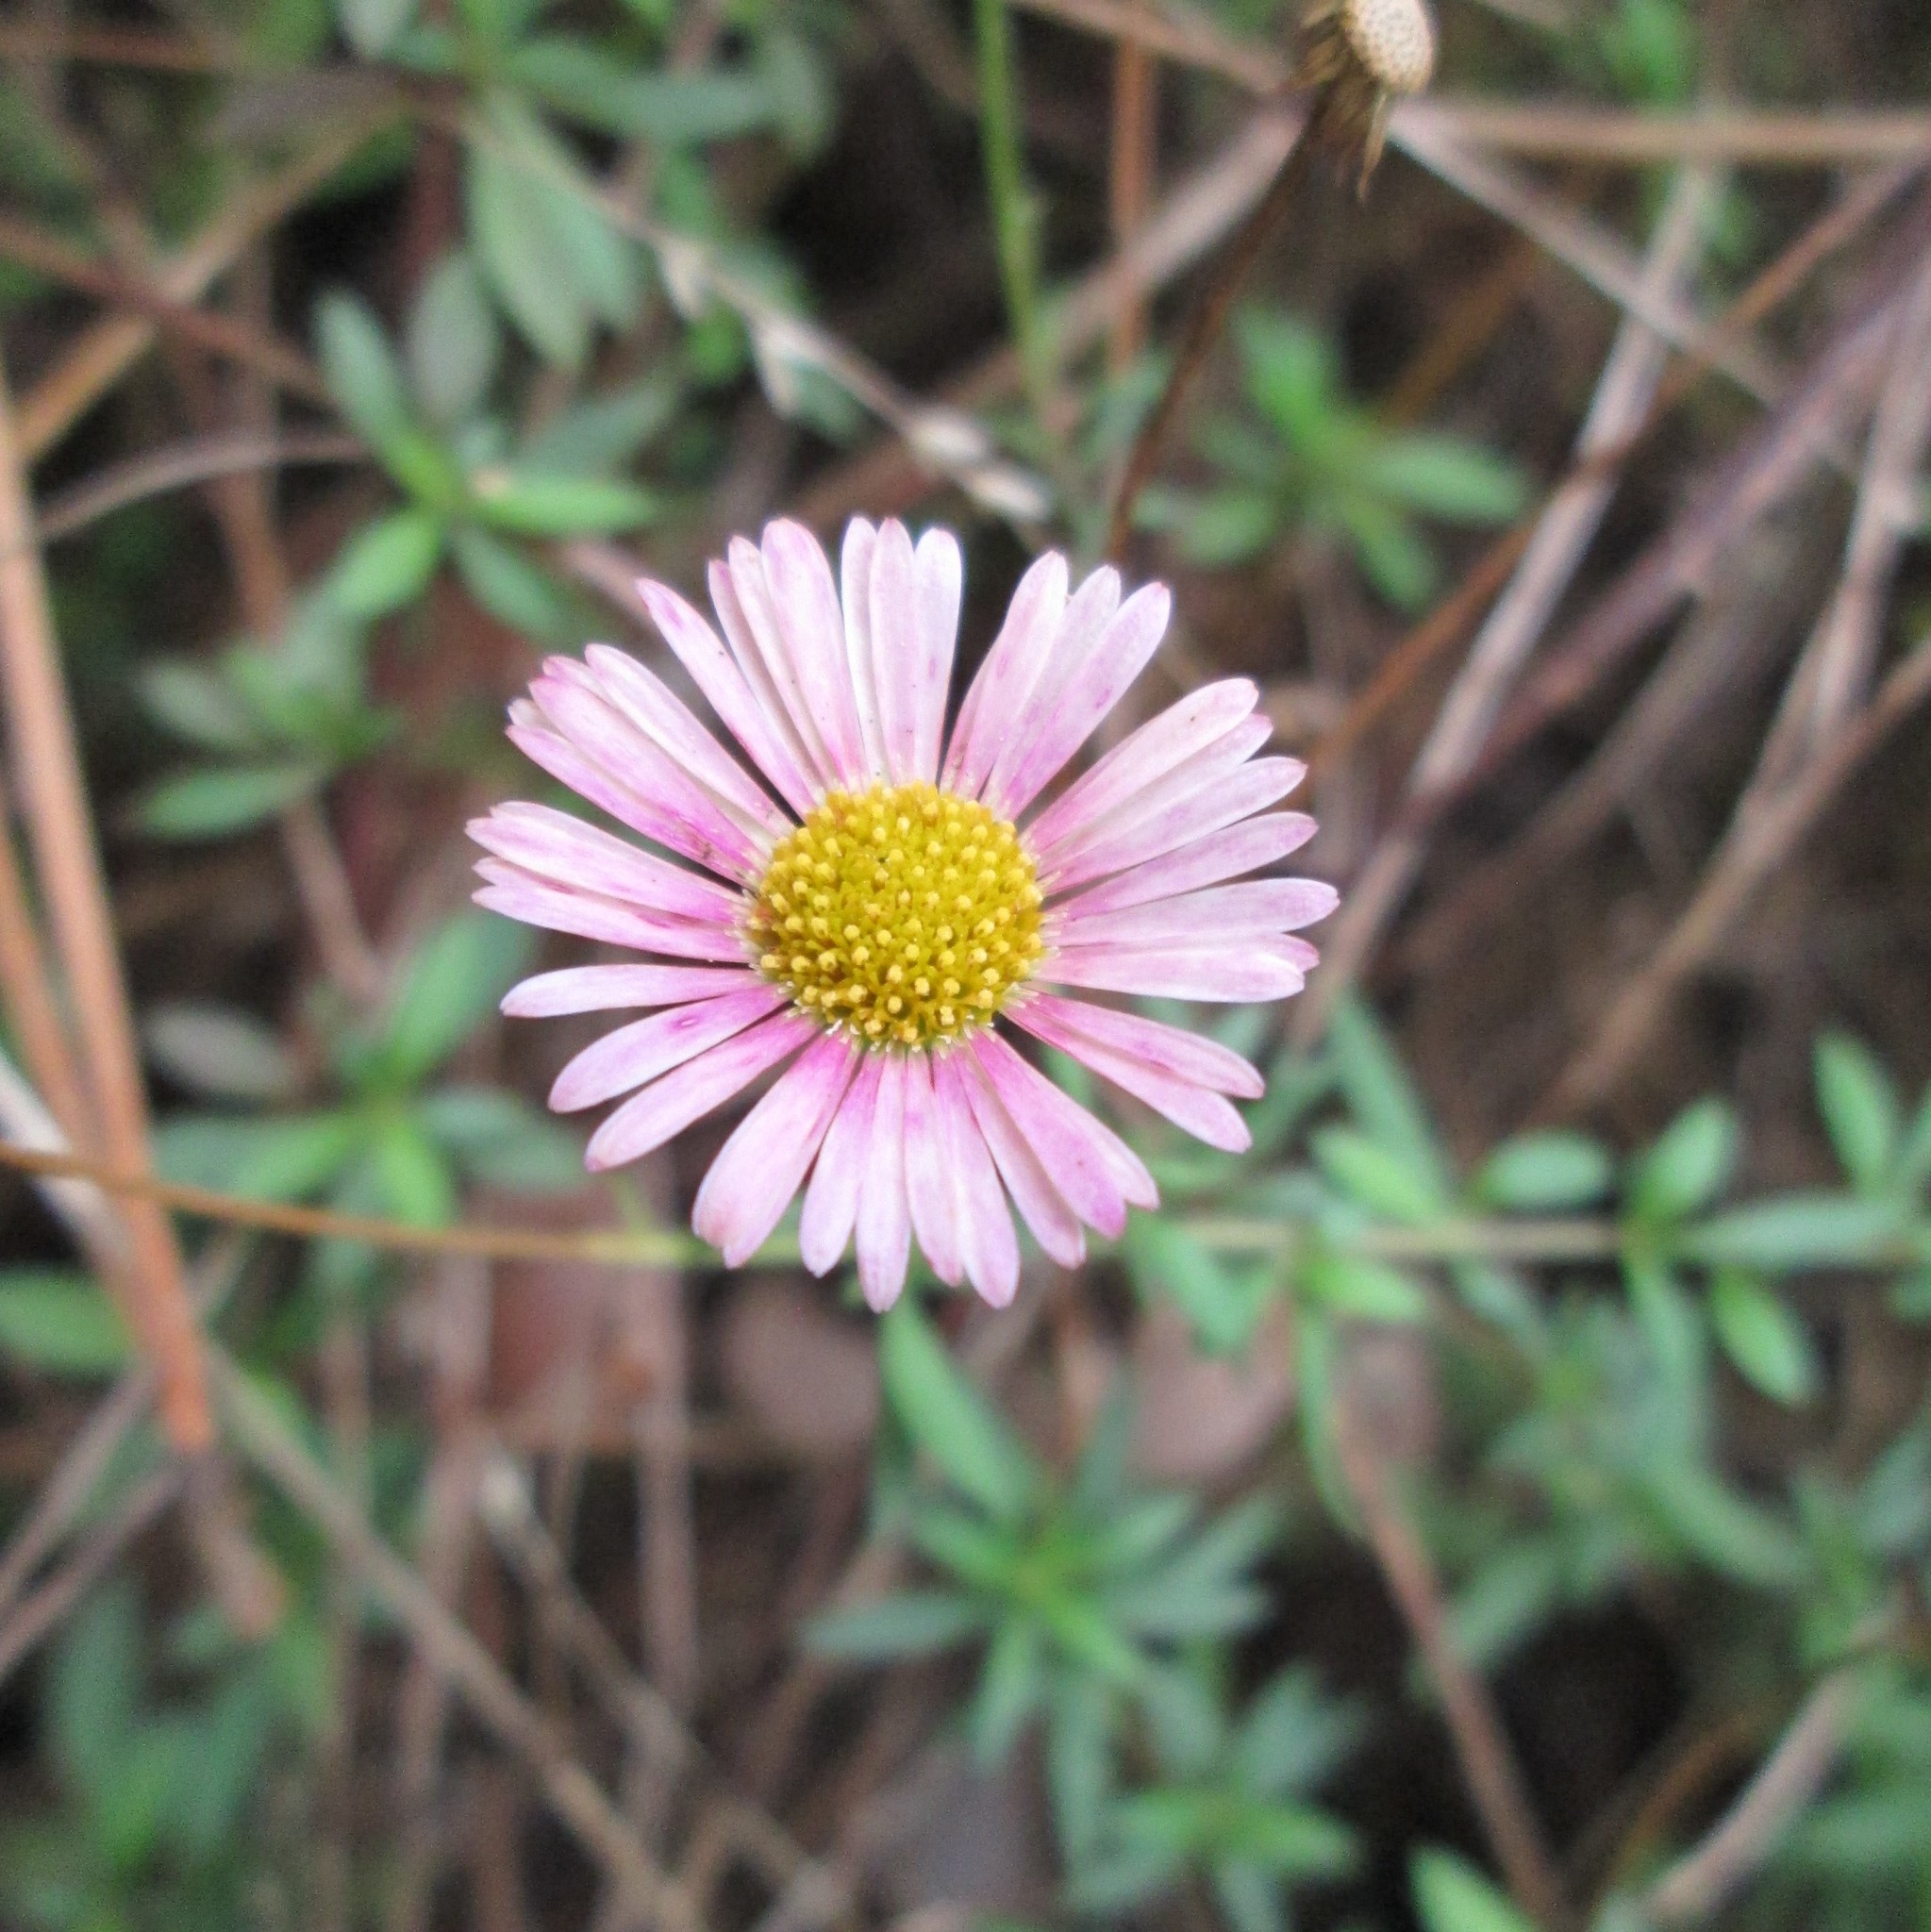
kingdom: Plantae
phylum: Tracheophyta
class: Magnoliopsida
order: Asterales
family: Asteraceae
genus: Erigeron
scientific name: Erigeron karvinskianus
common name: Mexican fleabane
